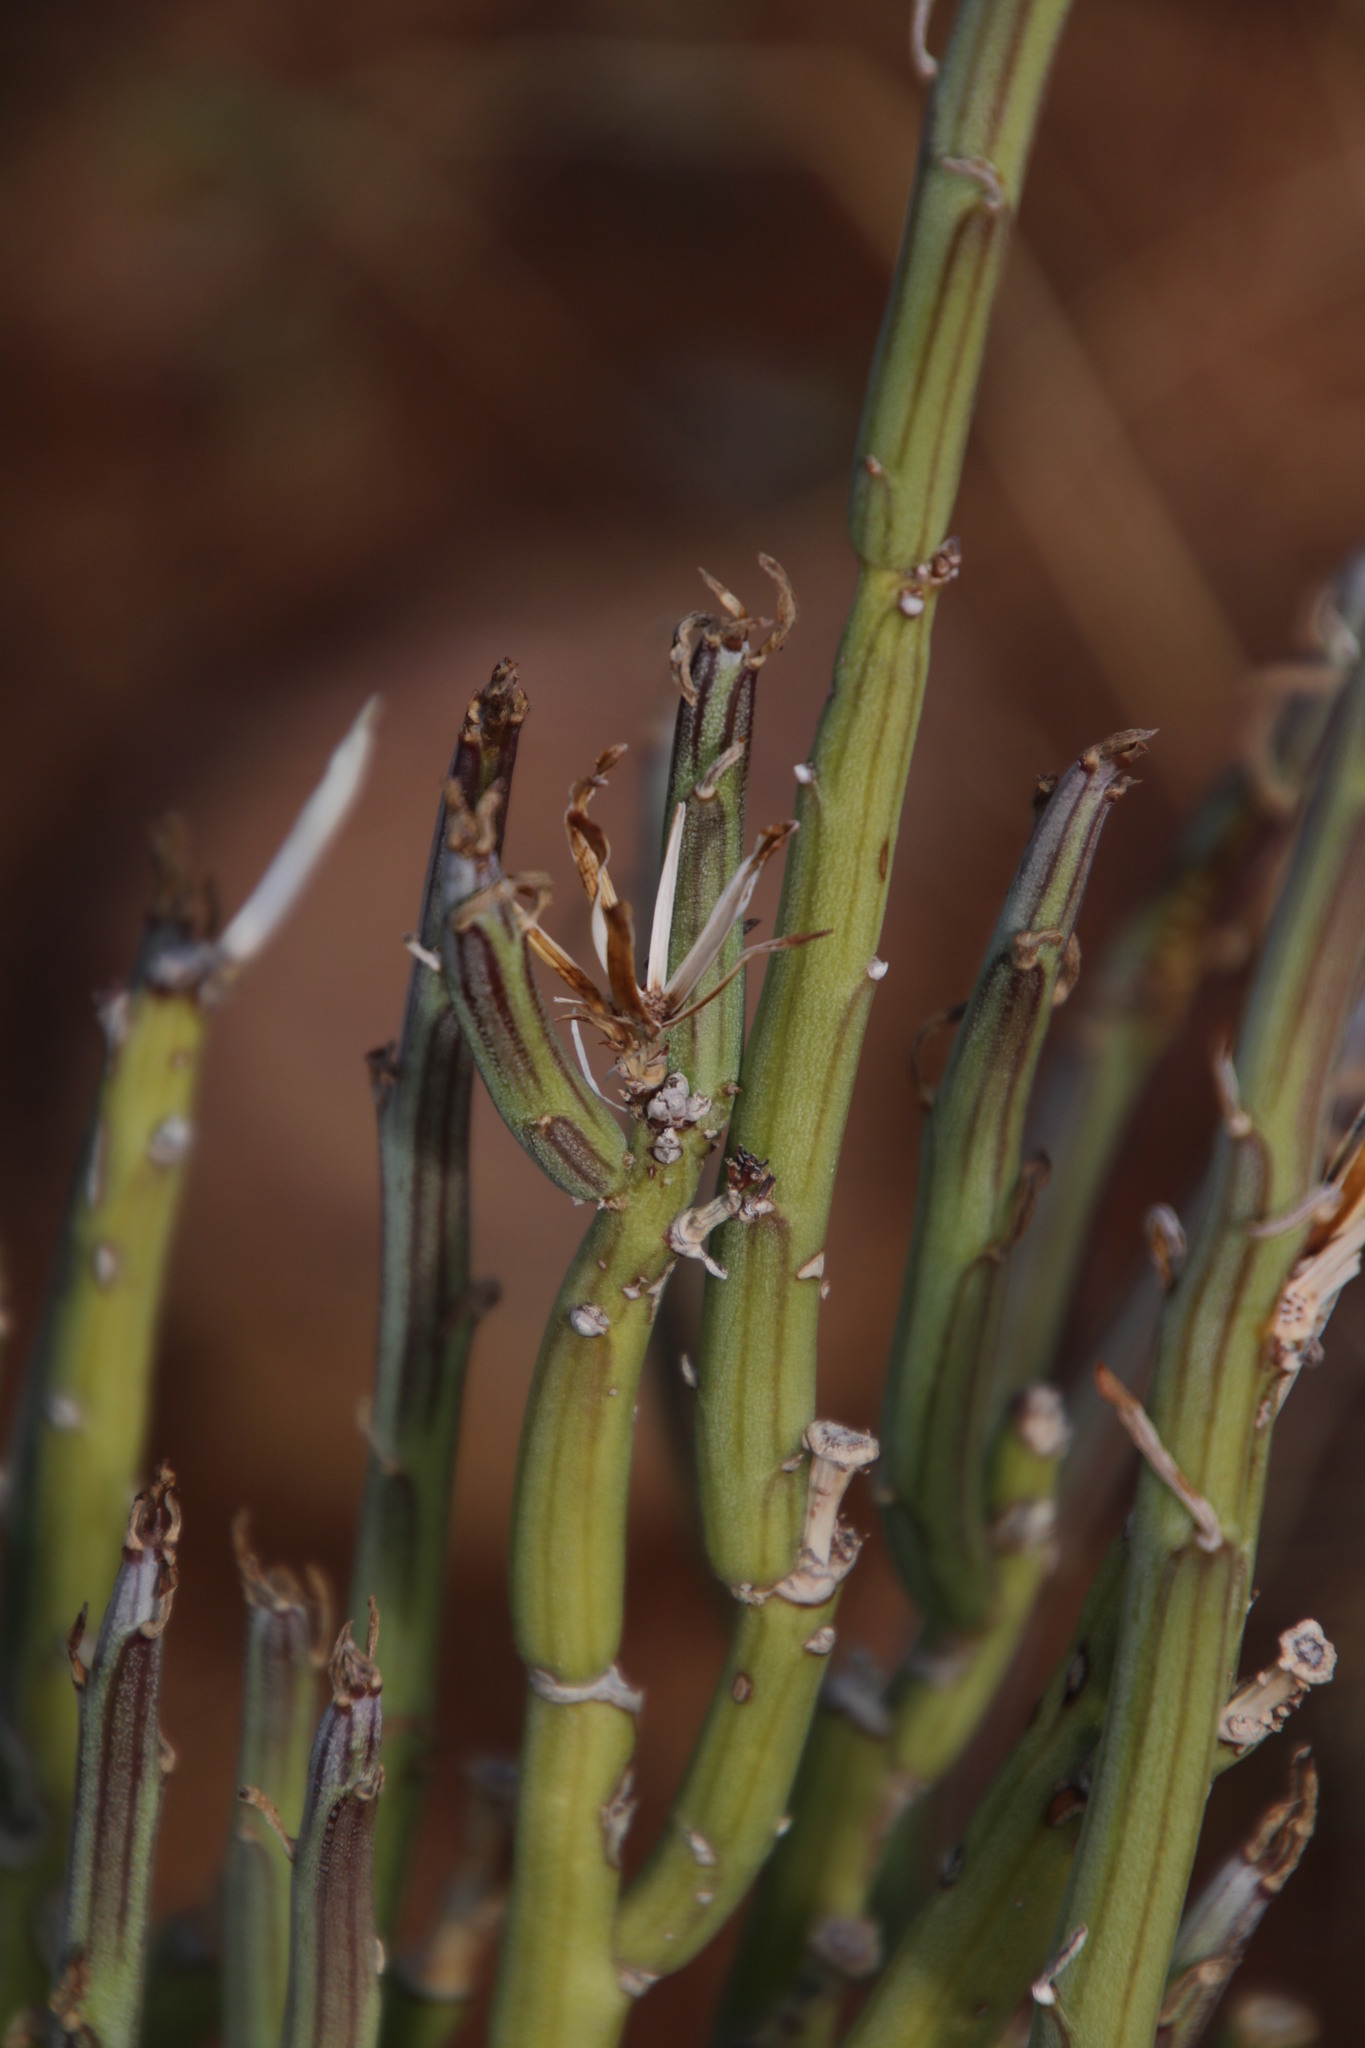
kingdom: Plantae
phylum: Tracheophyta
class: Magnoliopsida
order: Asterales
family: Asteraceae
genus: Curio
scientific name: Curio avasimontanus
